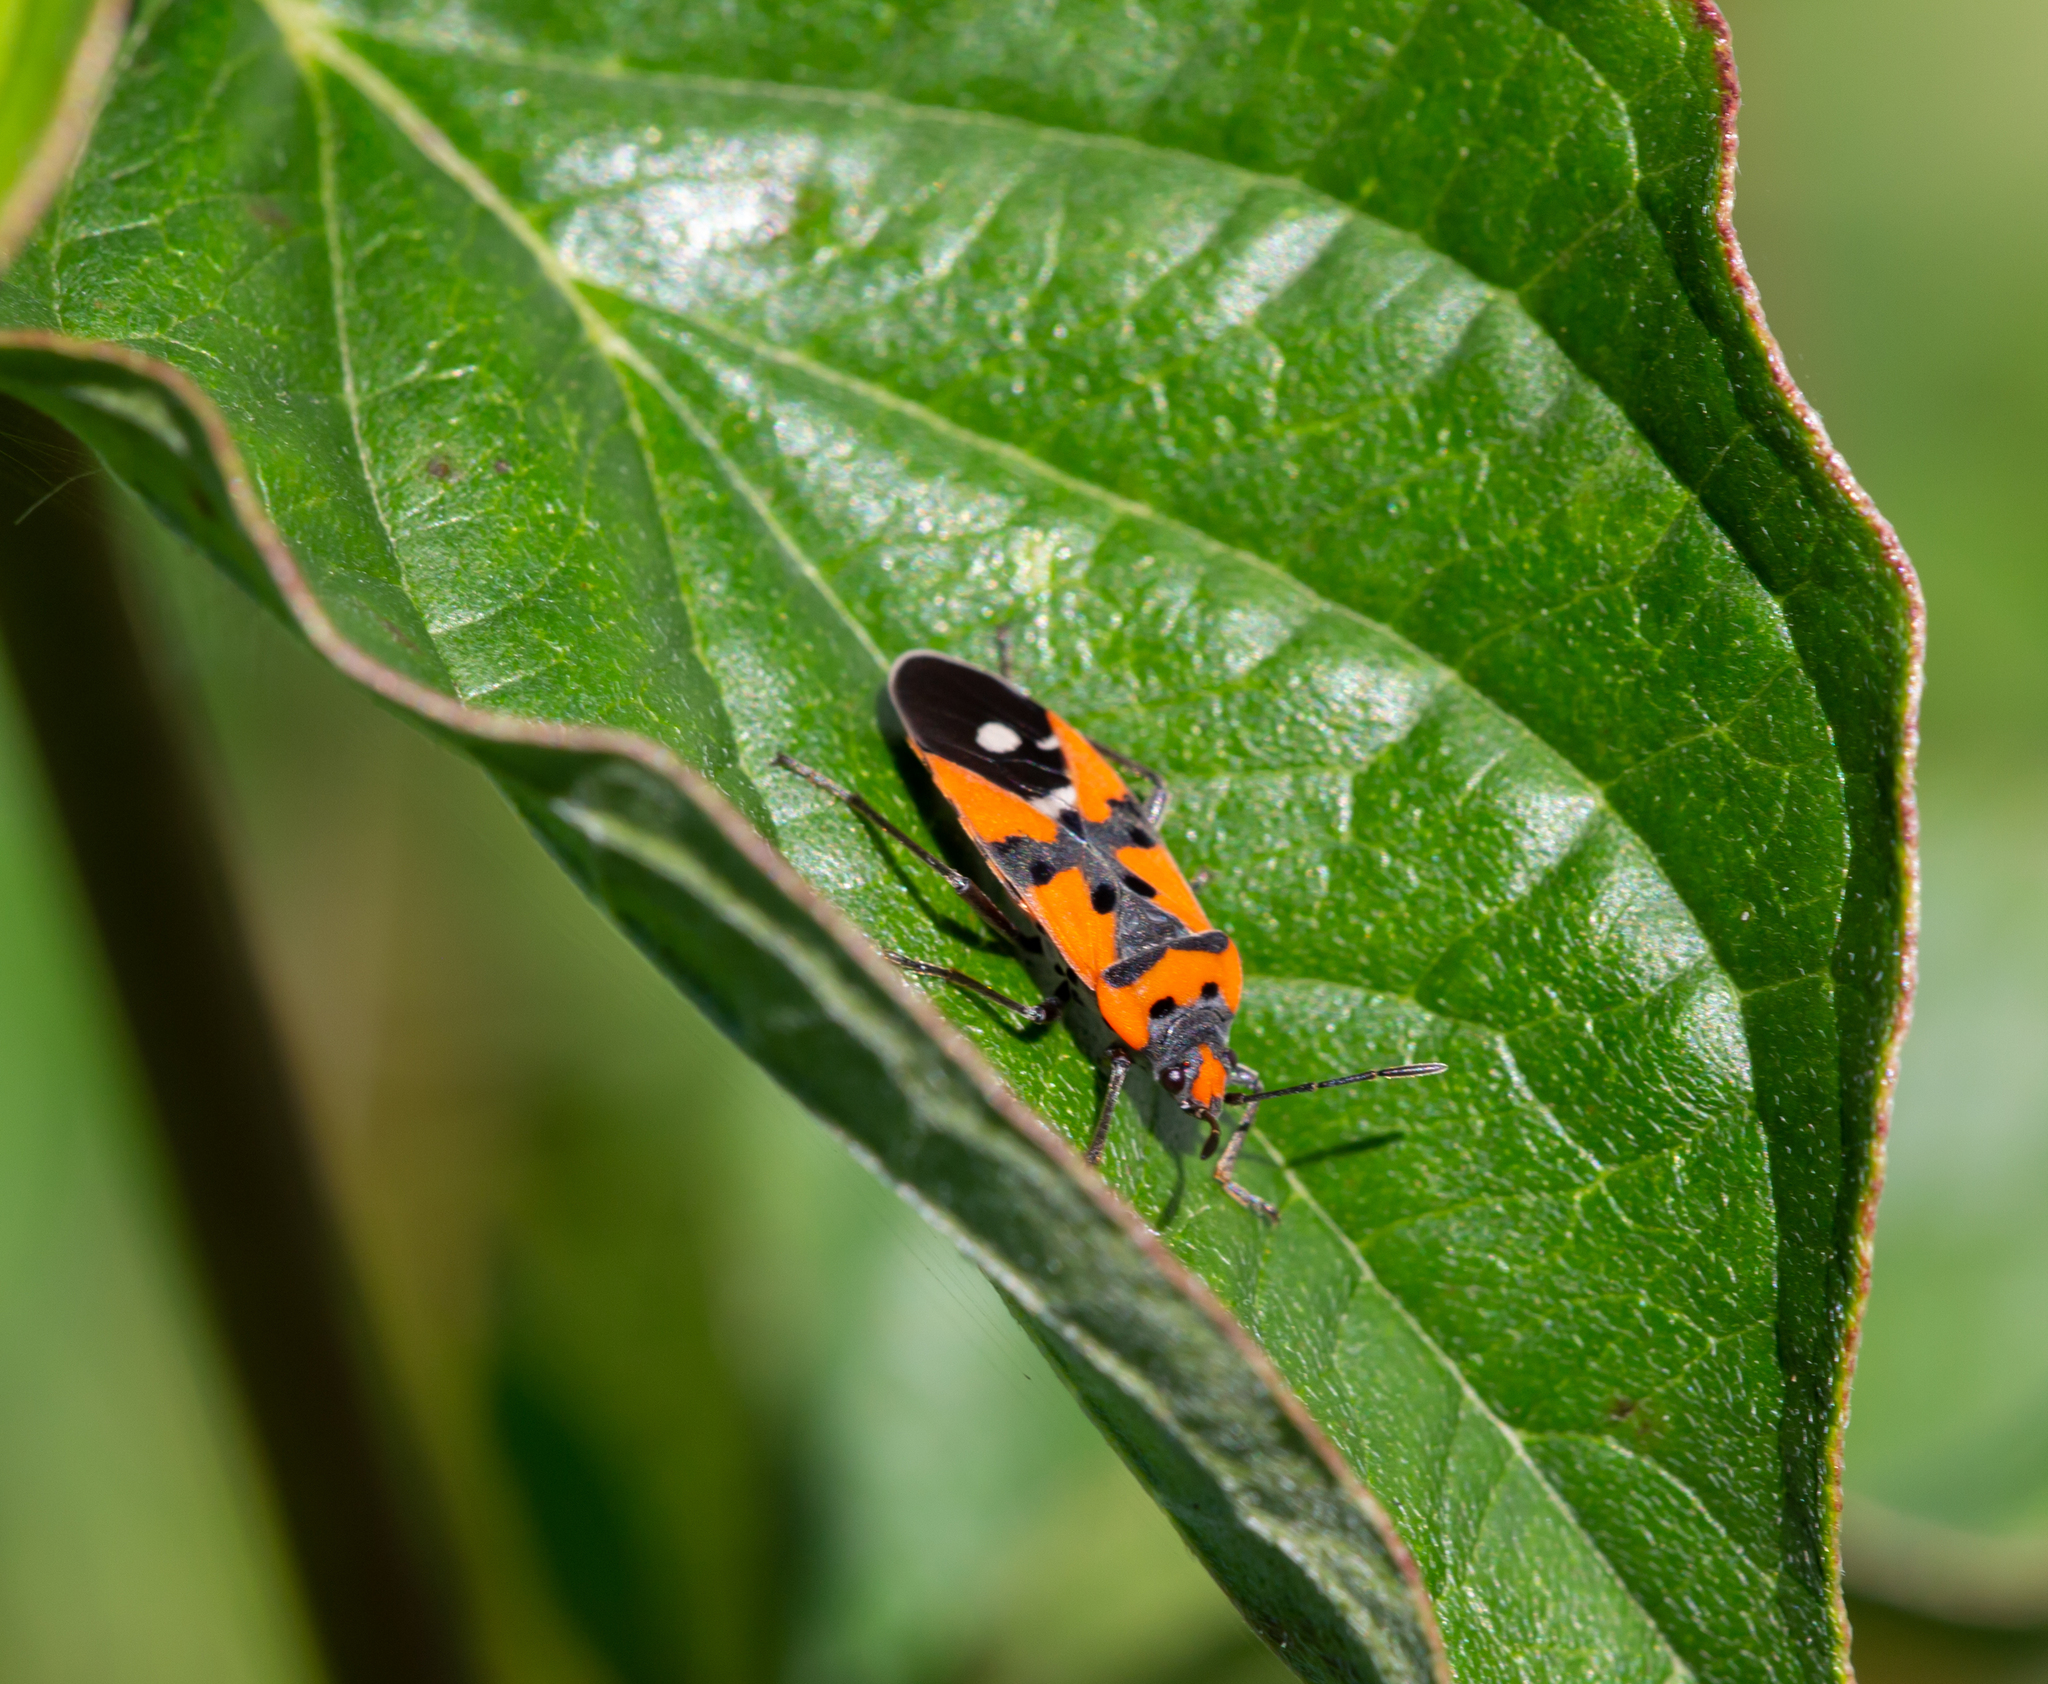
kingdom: Animalia
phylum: Arthropoda
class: Insecta
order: Hemiptera
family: Lygaeidae
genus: Lygaeus
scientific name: Lygaeus equestris
